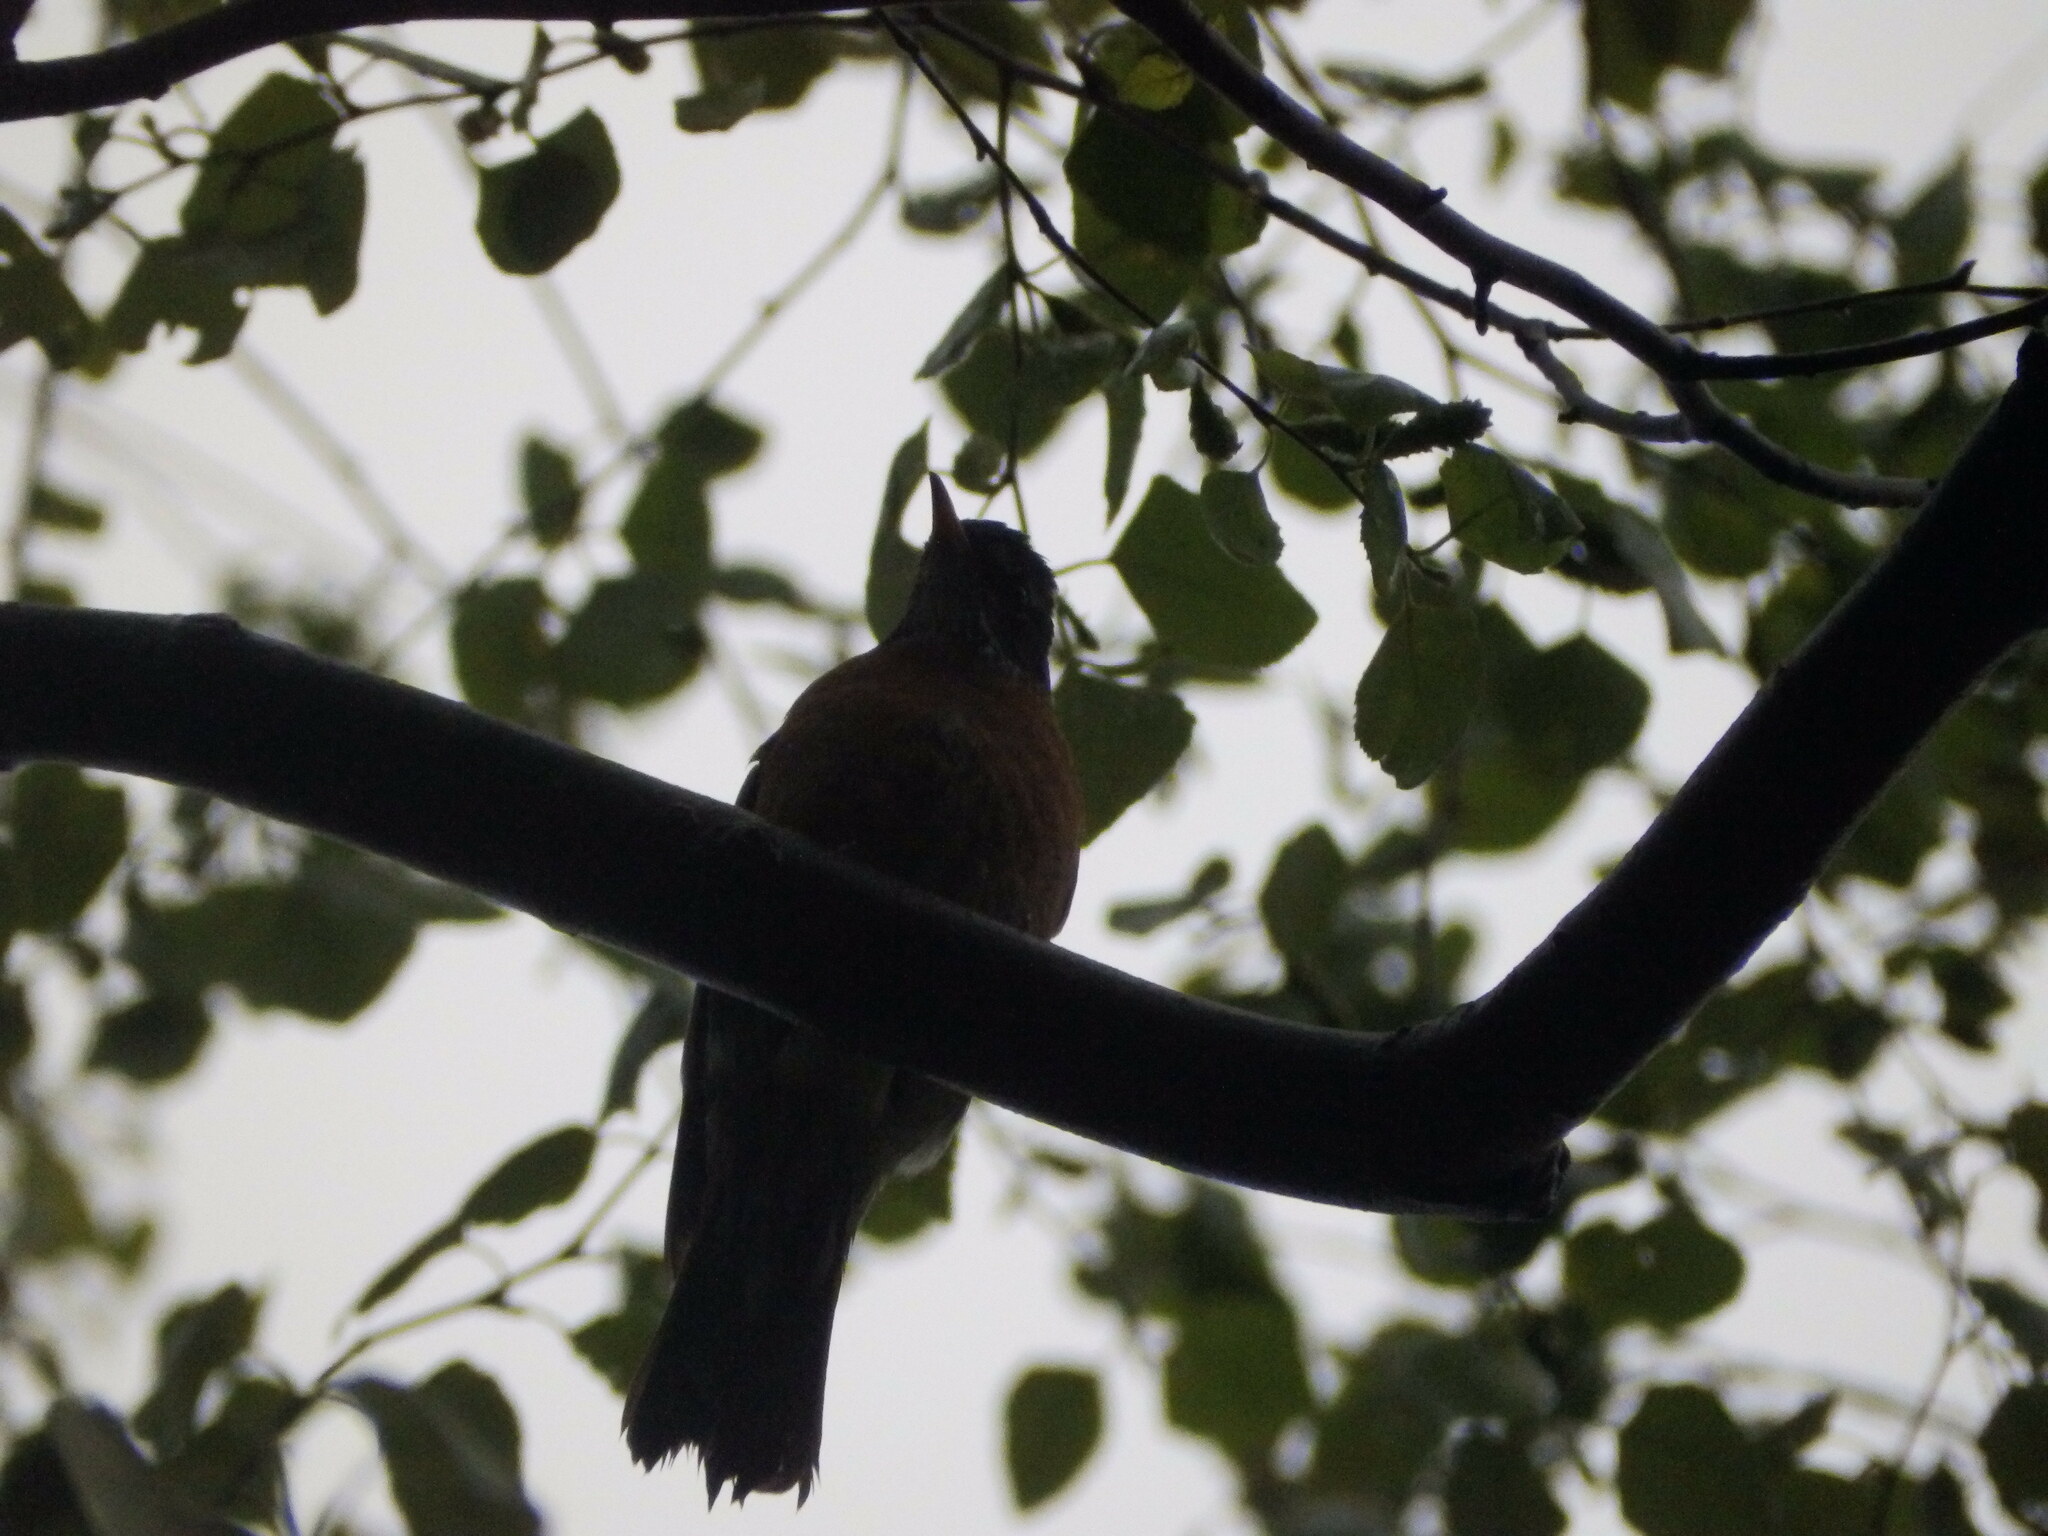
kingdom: Animalia
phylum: Chordata
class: Aves
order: Passeriformes
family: Turdidae
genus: Turdus
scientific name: Turdus migratorius
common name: American robin
